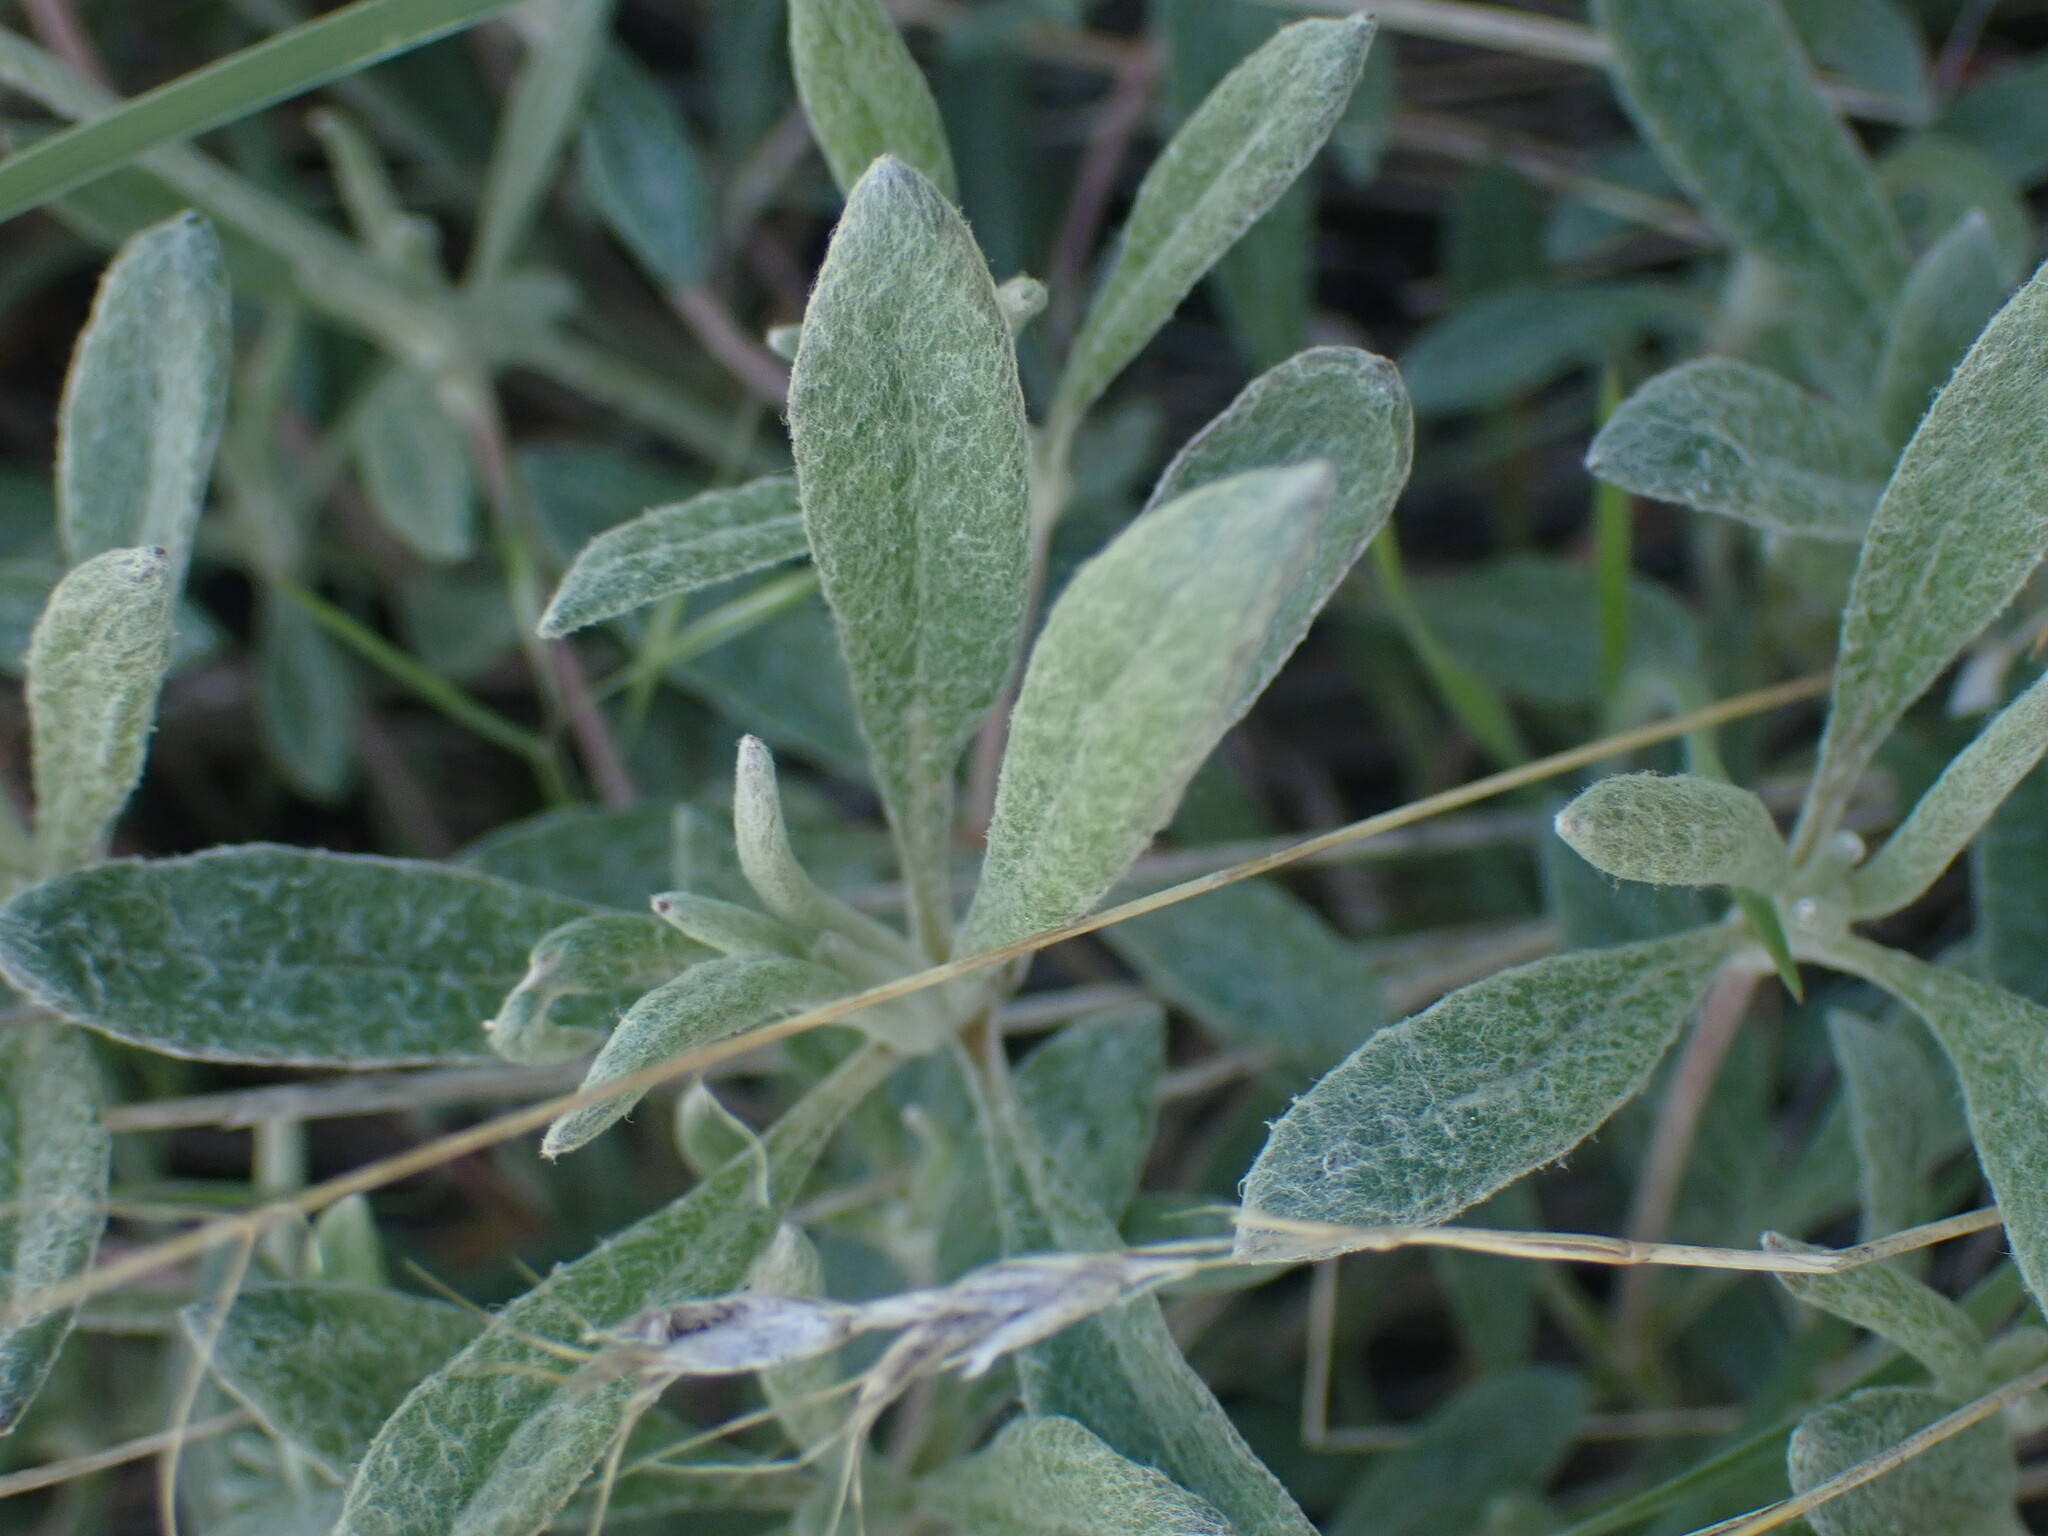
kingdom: Plantae
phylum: Tracheophyta
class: Magnoliopsida
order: Caryophyllales
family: Polygonaceae
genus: Eriogonum
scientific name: Eriogonum heracleoides
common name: Wyeth's buckwheat
